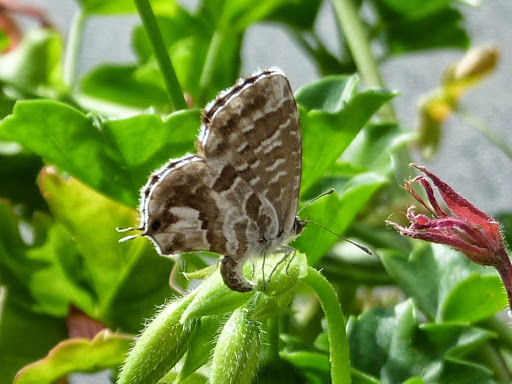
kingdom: Animalia
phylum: Arthropoda
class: Insecta
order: Lepidoptera
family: Lycaenidae
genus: Cacyreus
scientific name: Cacyreus marshalli
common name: Geranium bronze
